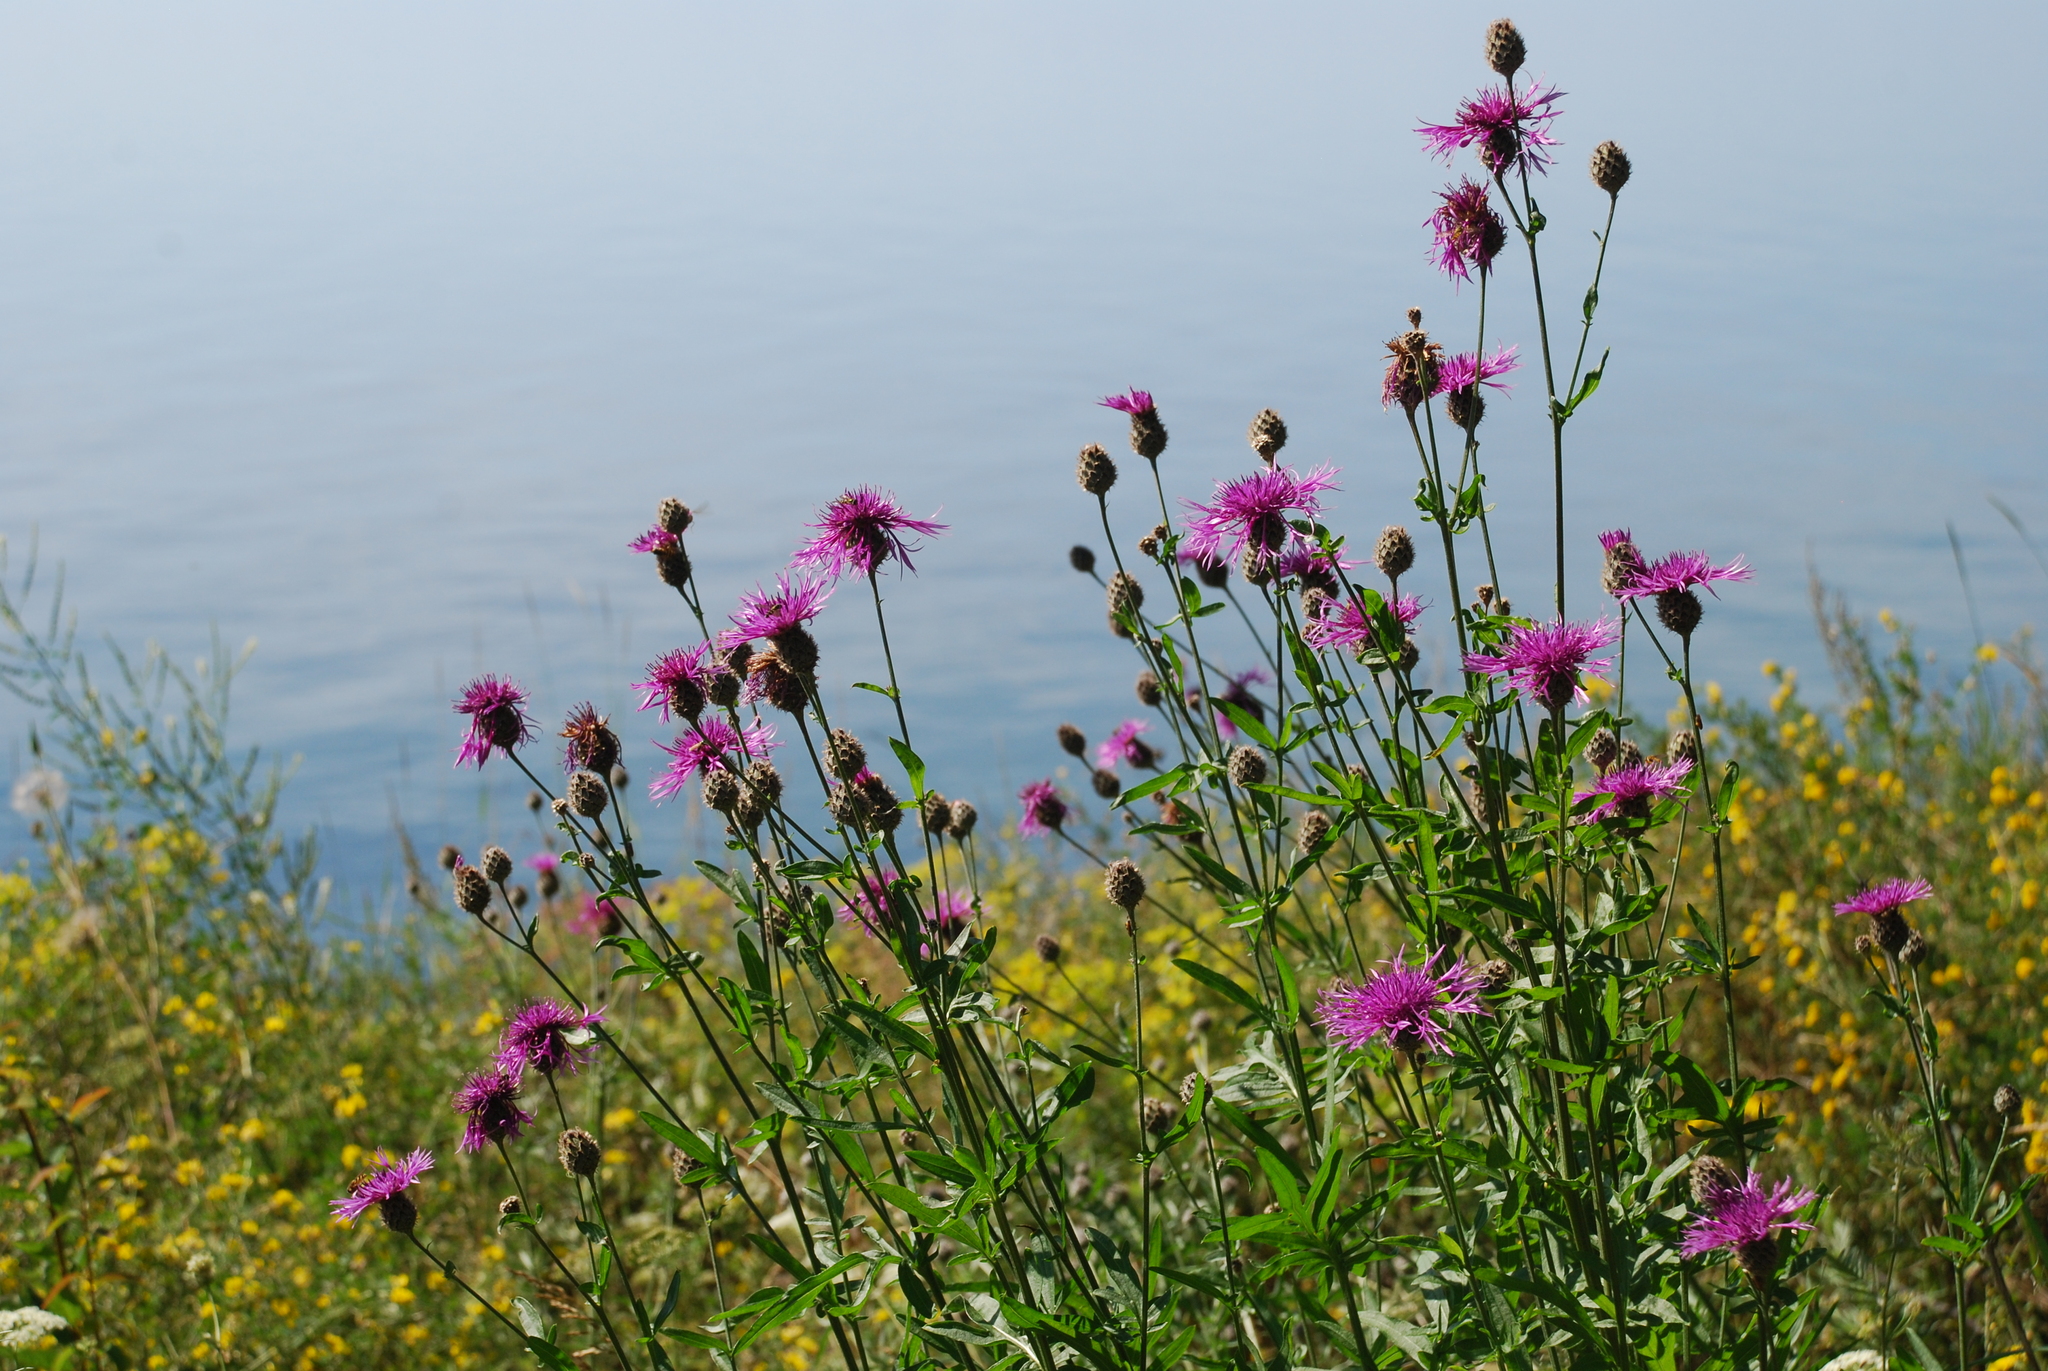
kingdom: Plantae
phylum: Tracheophyta
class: Magnoliopsida
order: Asterales
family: Asteraceae
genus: Centaurea
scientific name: Centaurea scabiosa
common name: Greater knapweed
